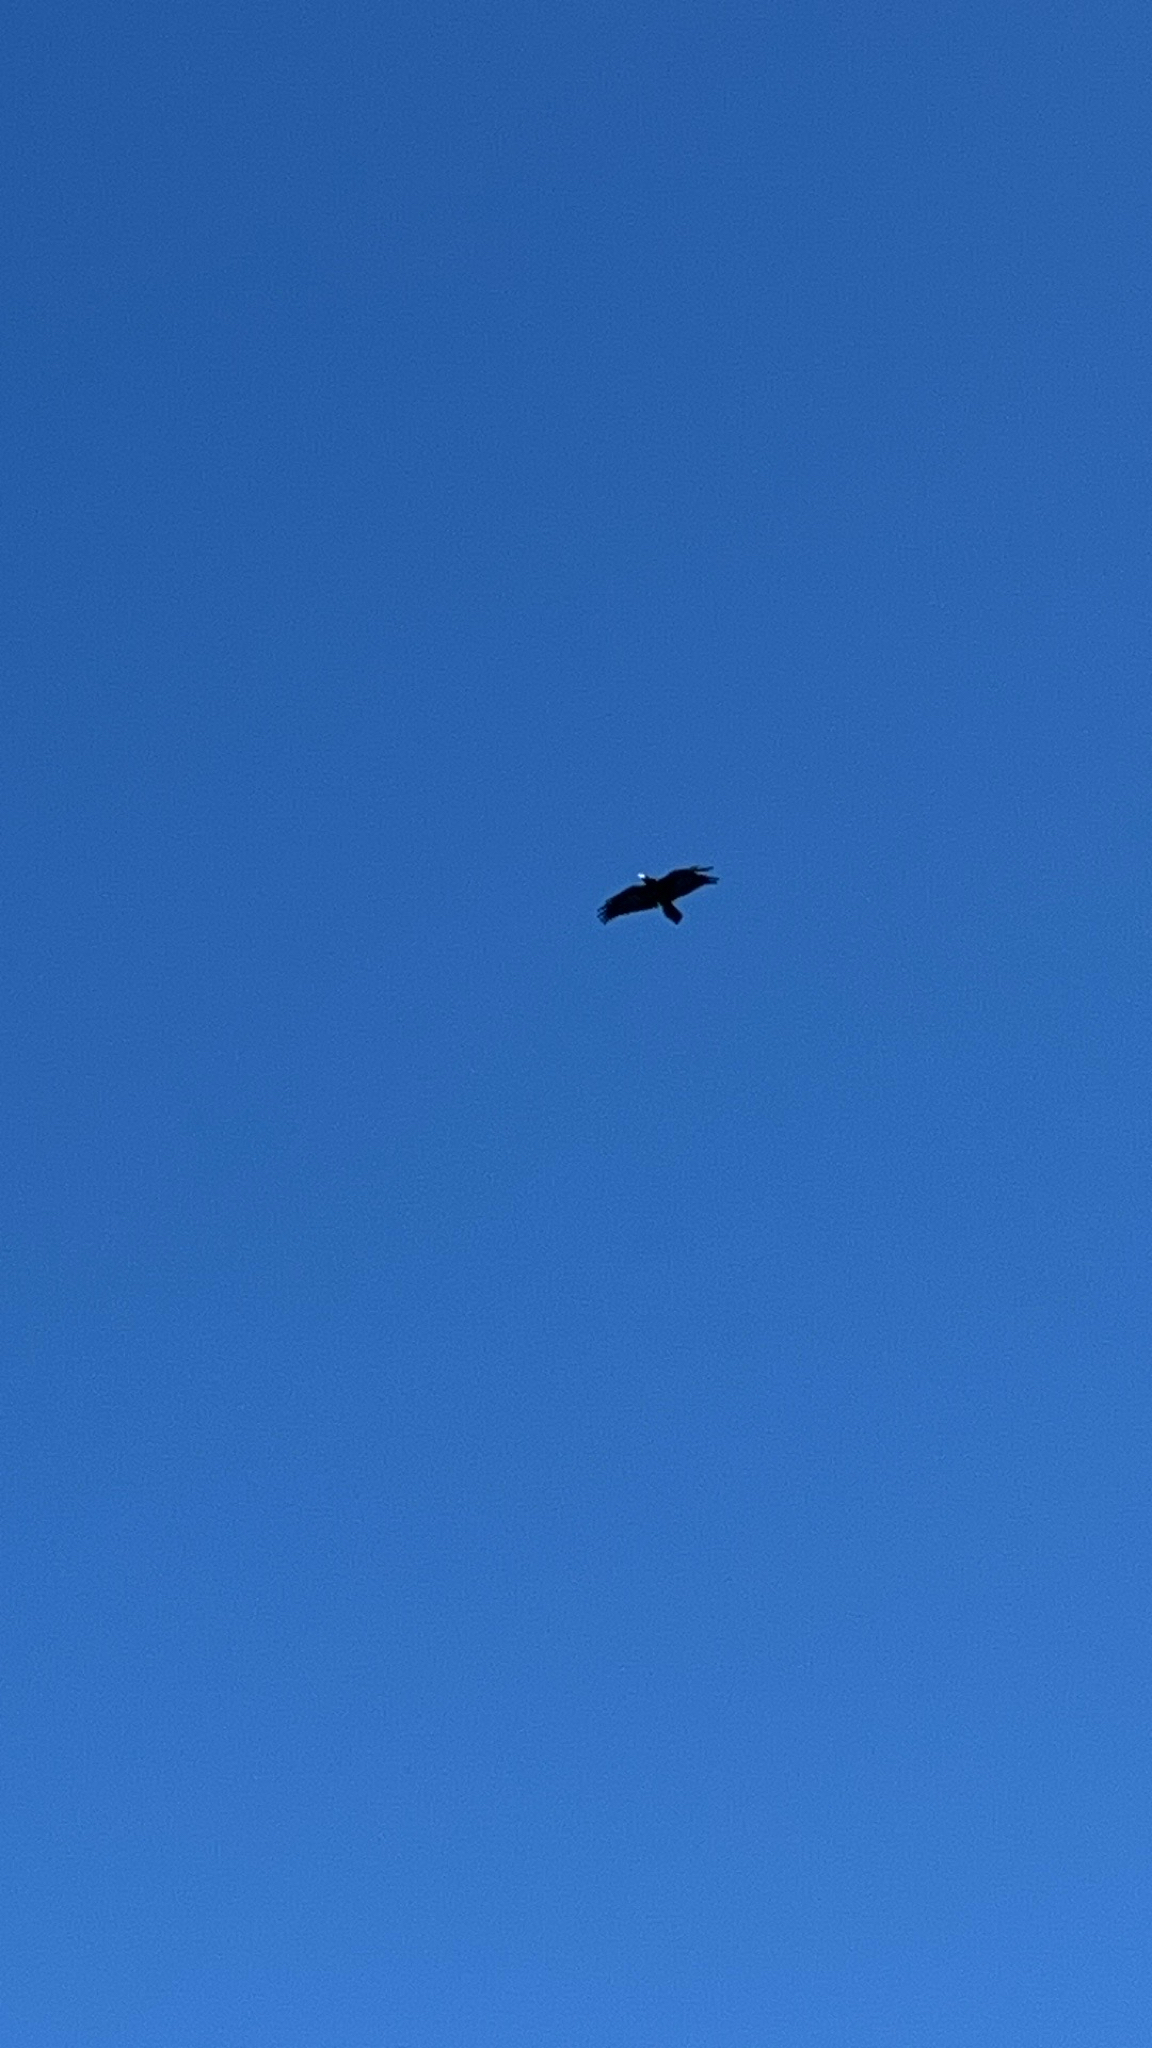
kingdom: Animalia
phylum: Chordata
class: Aves
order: Passeriformes
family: Corvidae
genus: Corvus
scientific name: Corvus corax
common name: Common raven
